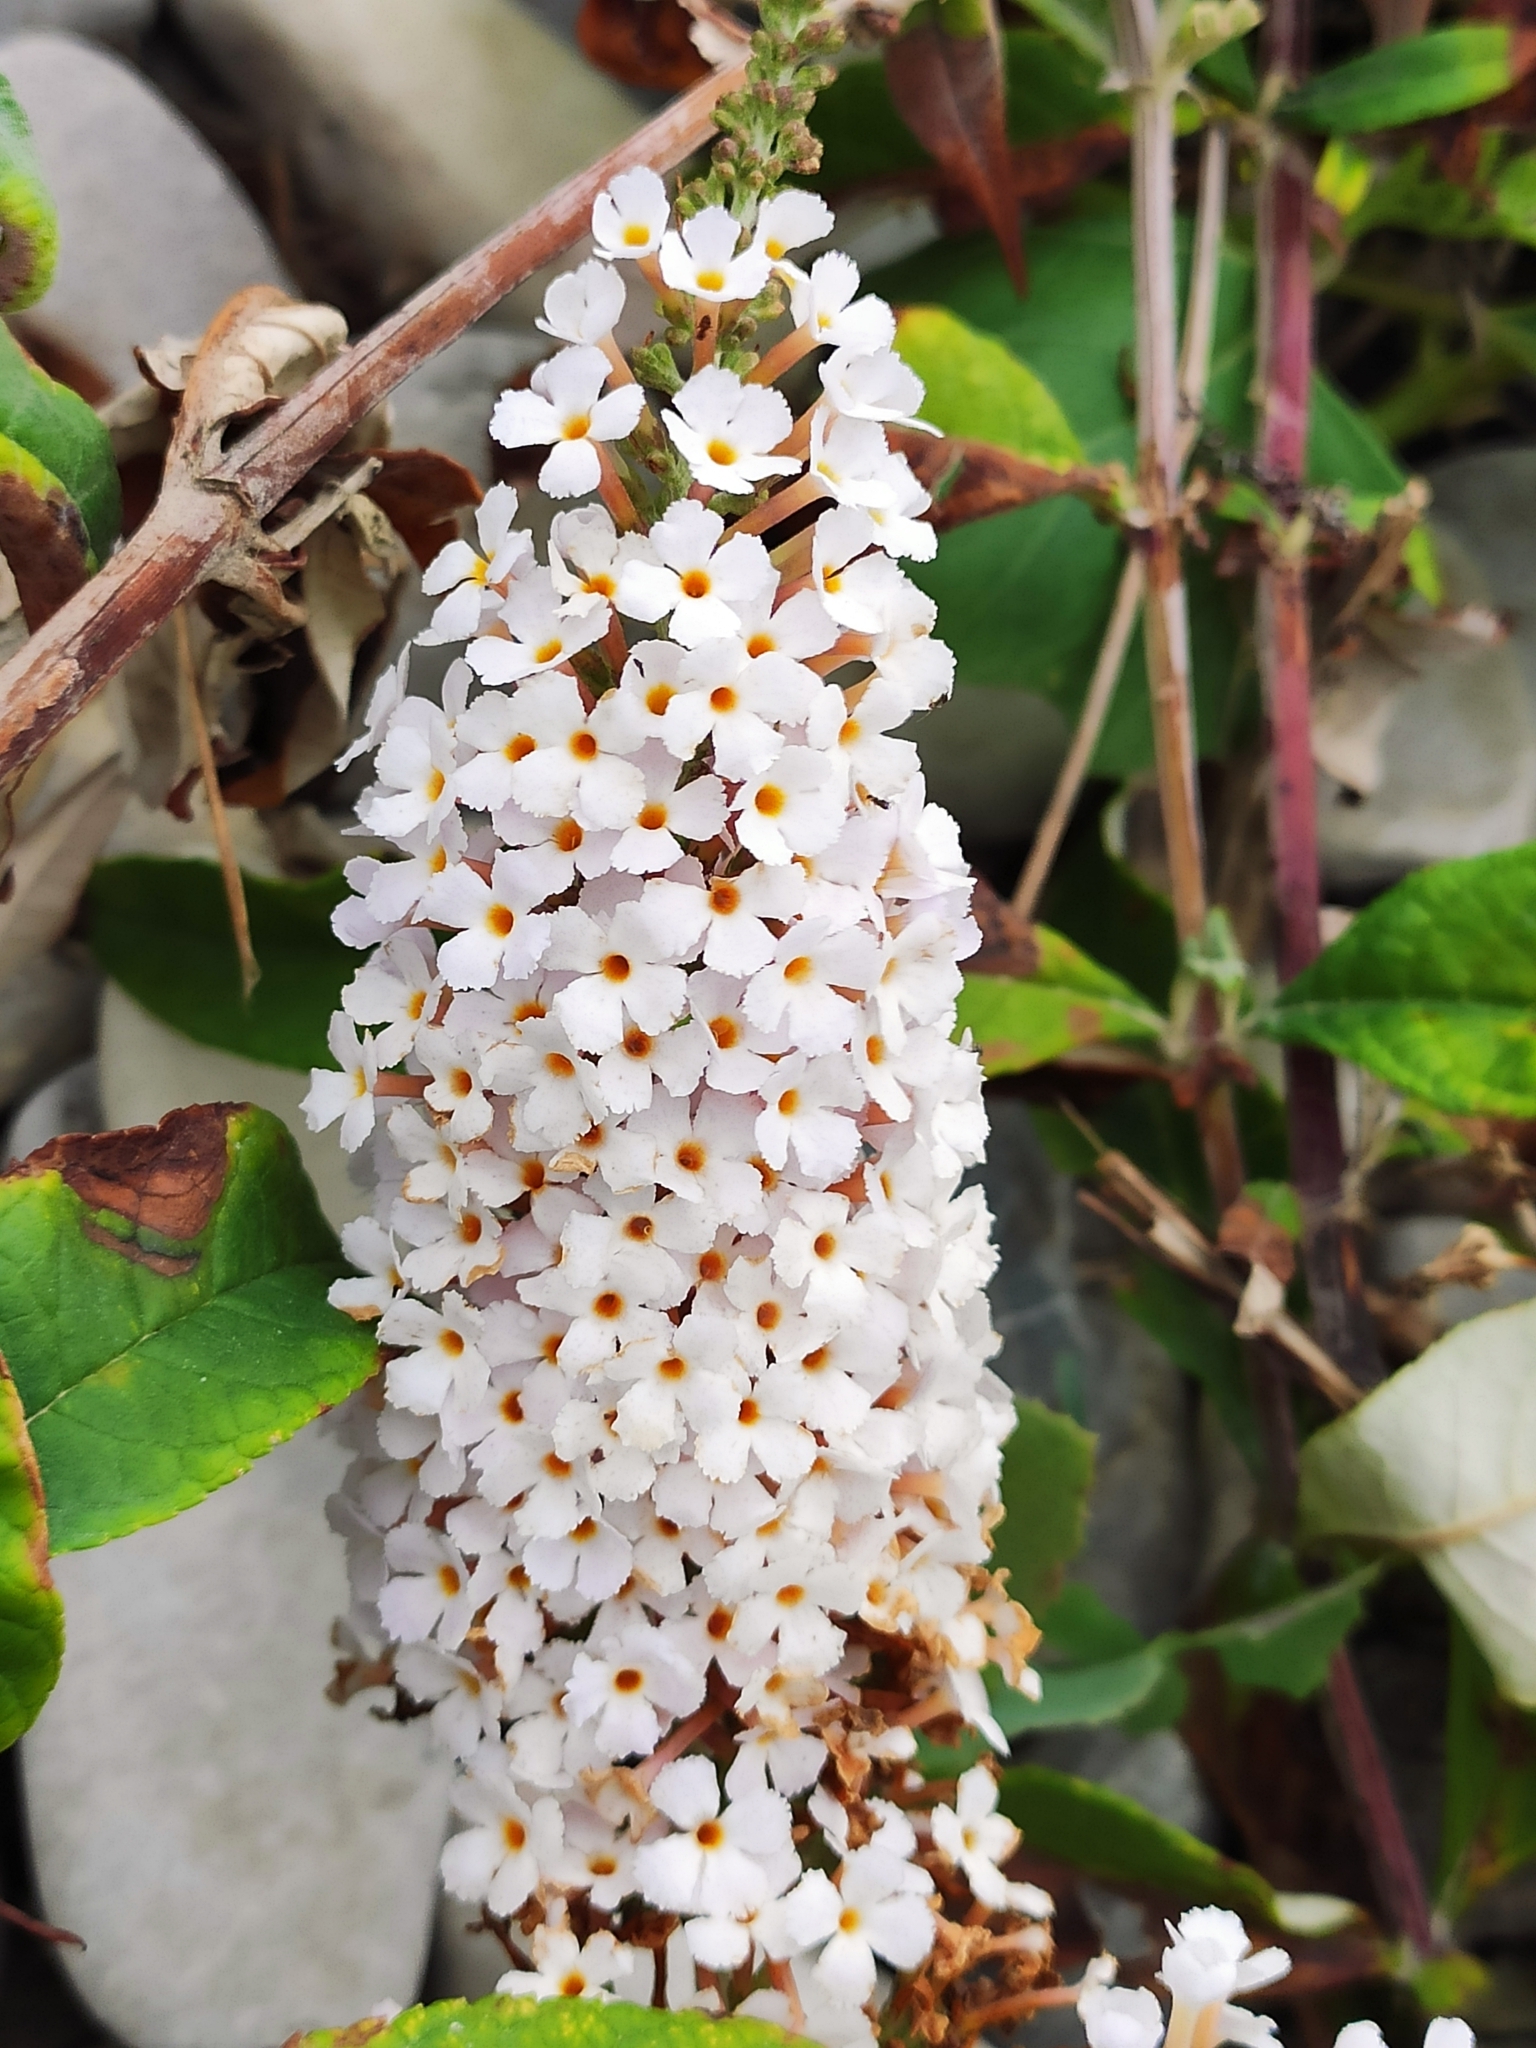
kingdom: Plantae
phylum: Tracheophyta
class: Magnoliopsida
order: Lamiales
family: Scrophulariaceae
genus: Buddleja
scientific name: Buddleja davidii
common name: Butterfly-bush
